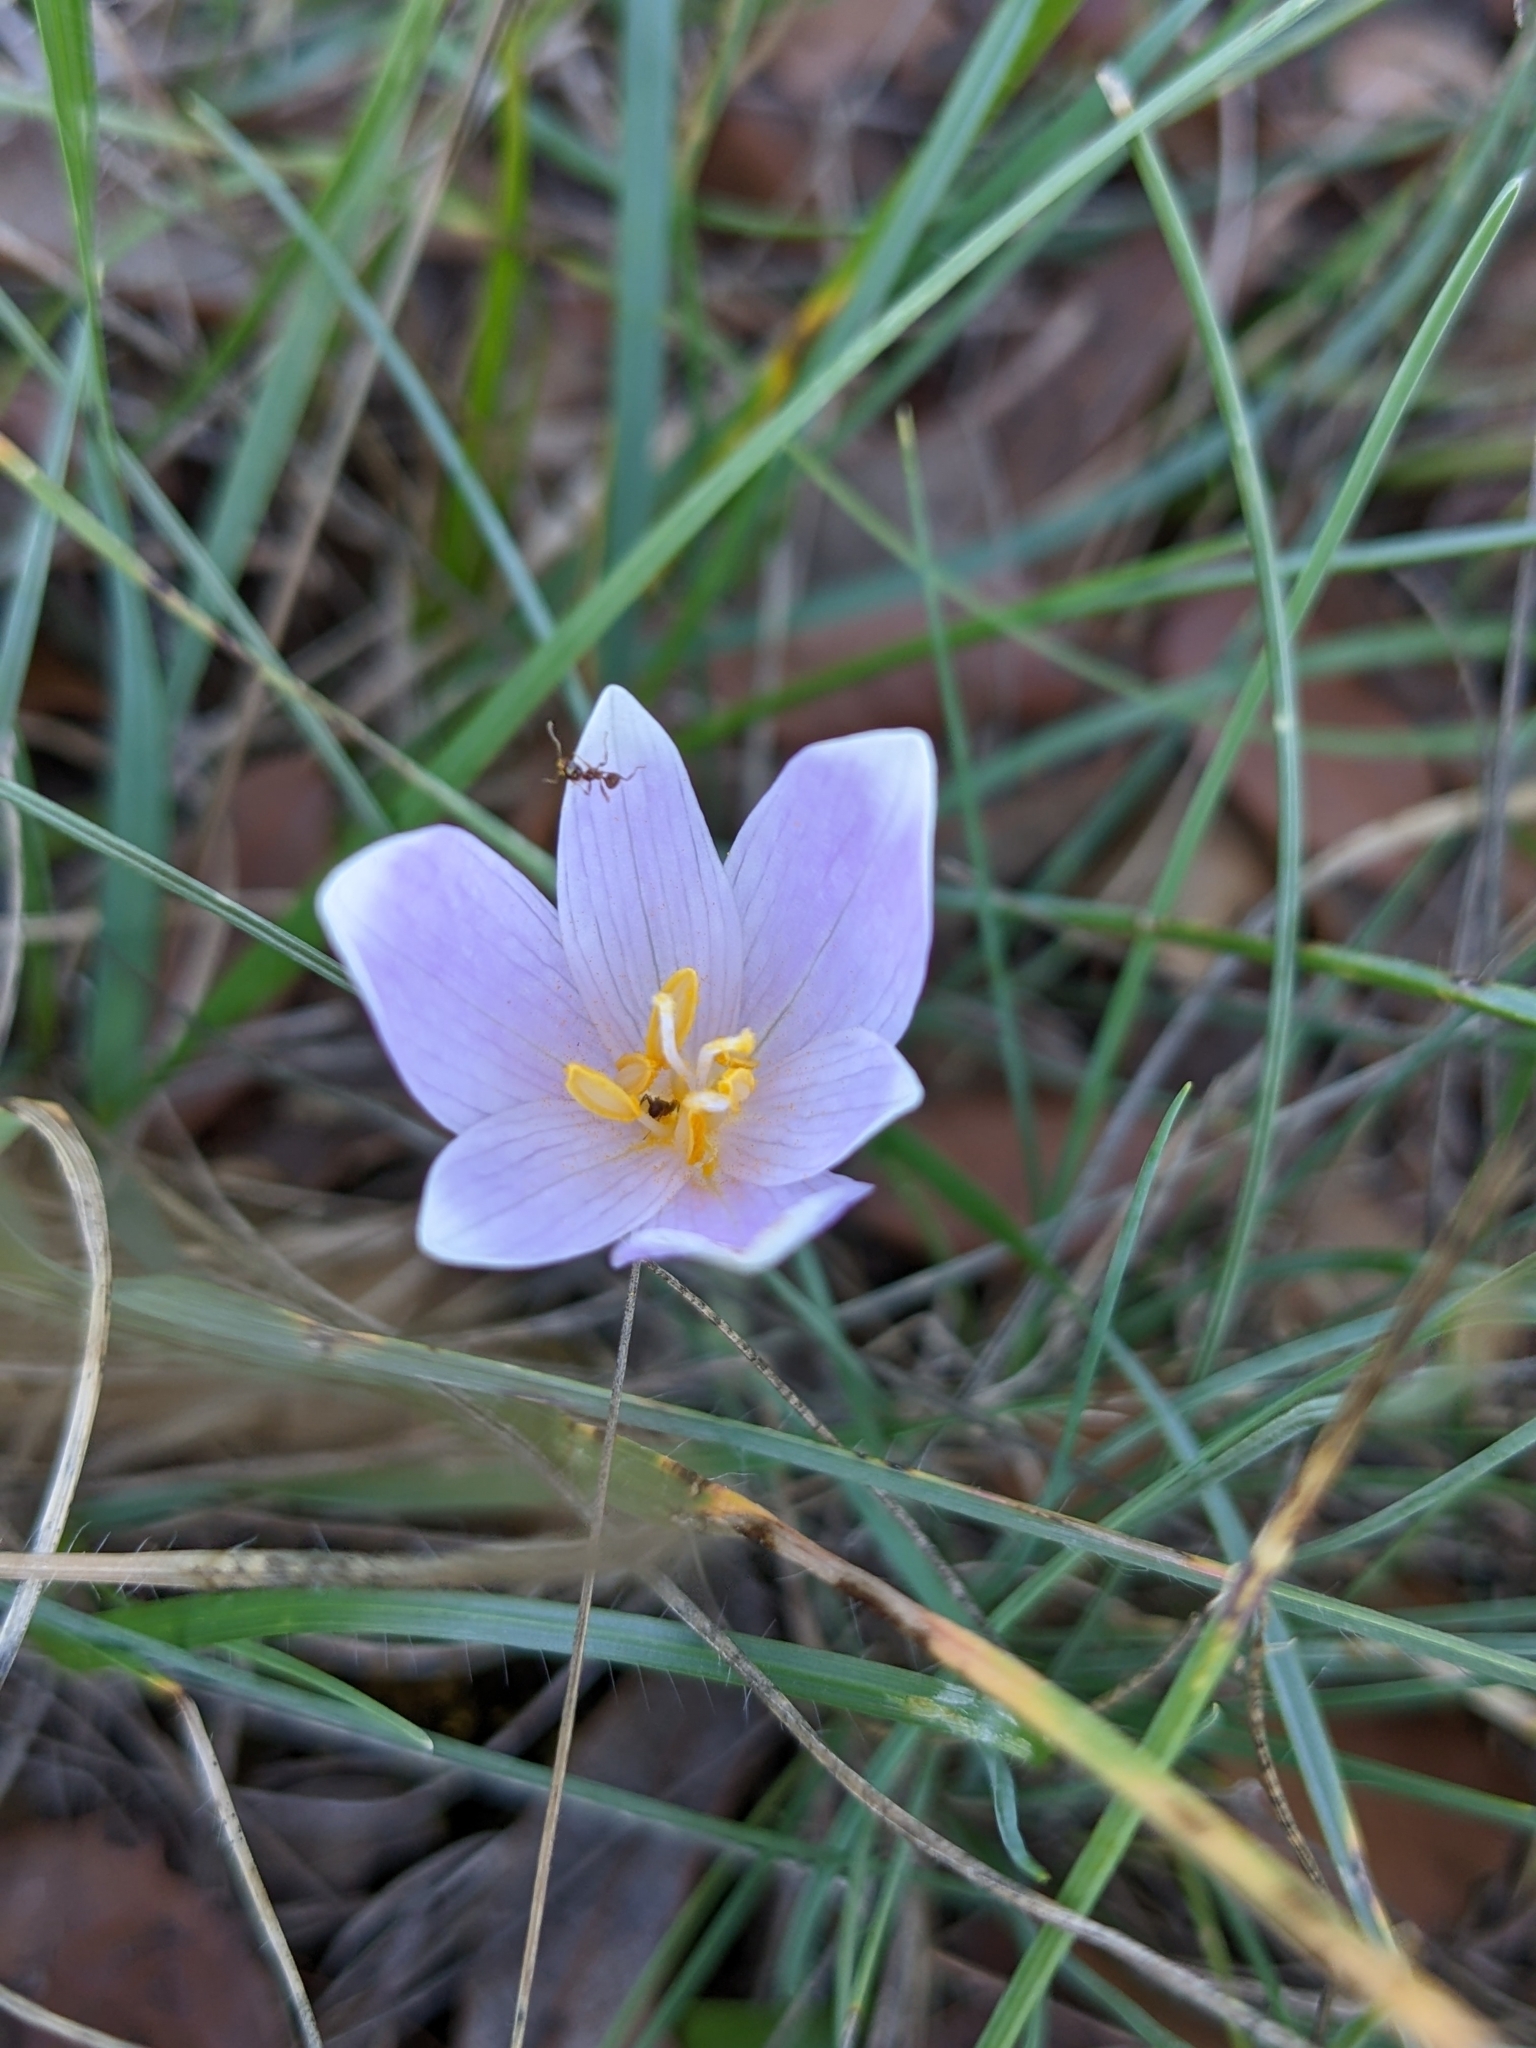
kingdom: Plantae
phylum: Tracheophyta
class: Liliopsida
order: Liliales
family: Colchicaceae
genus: Colchicum
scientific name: Colchicum longifolium
